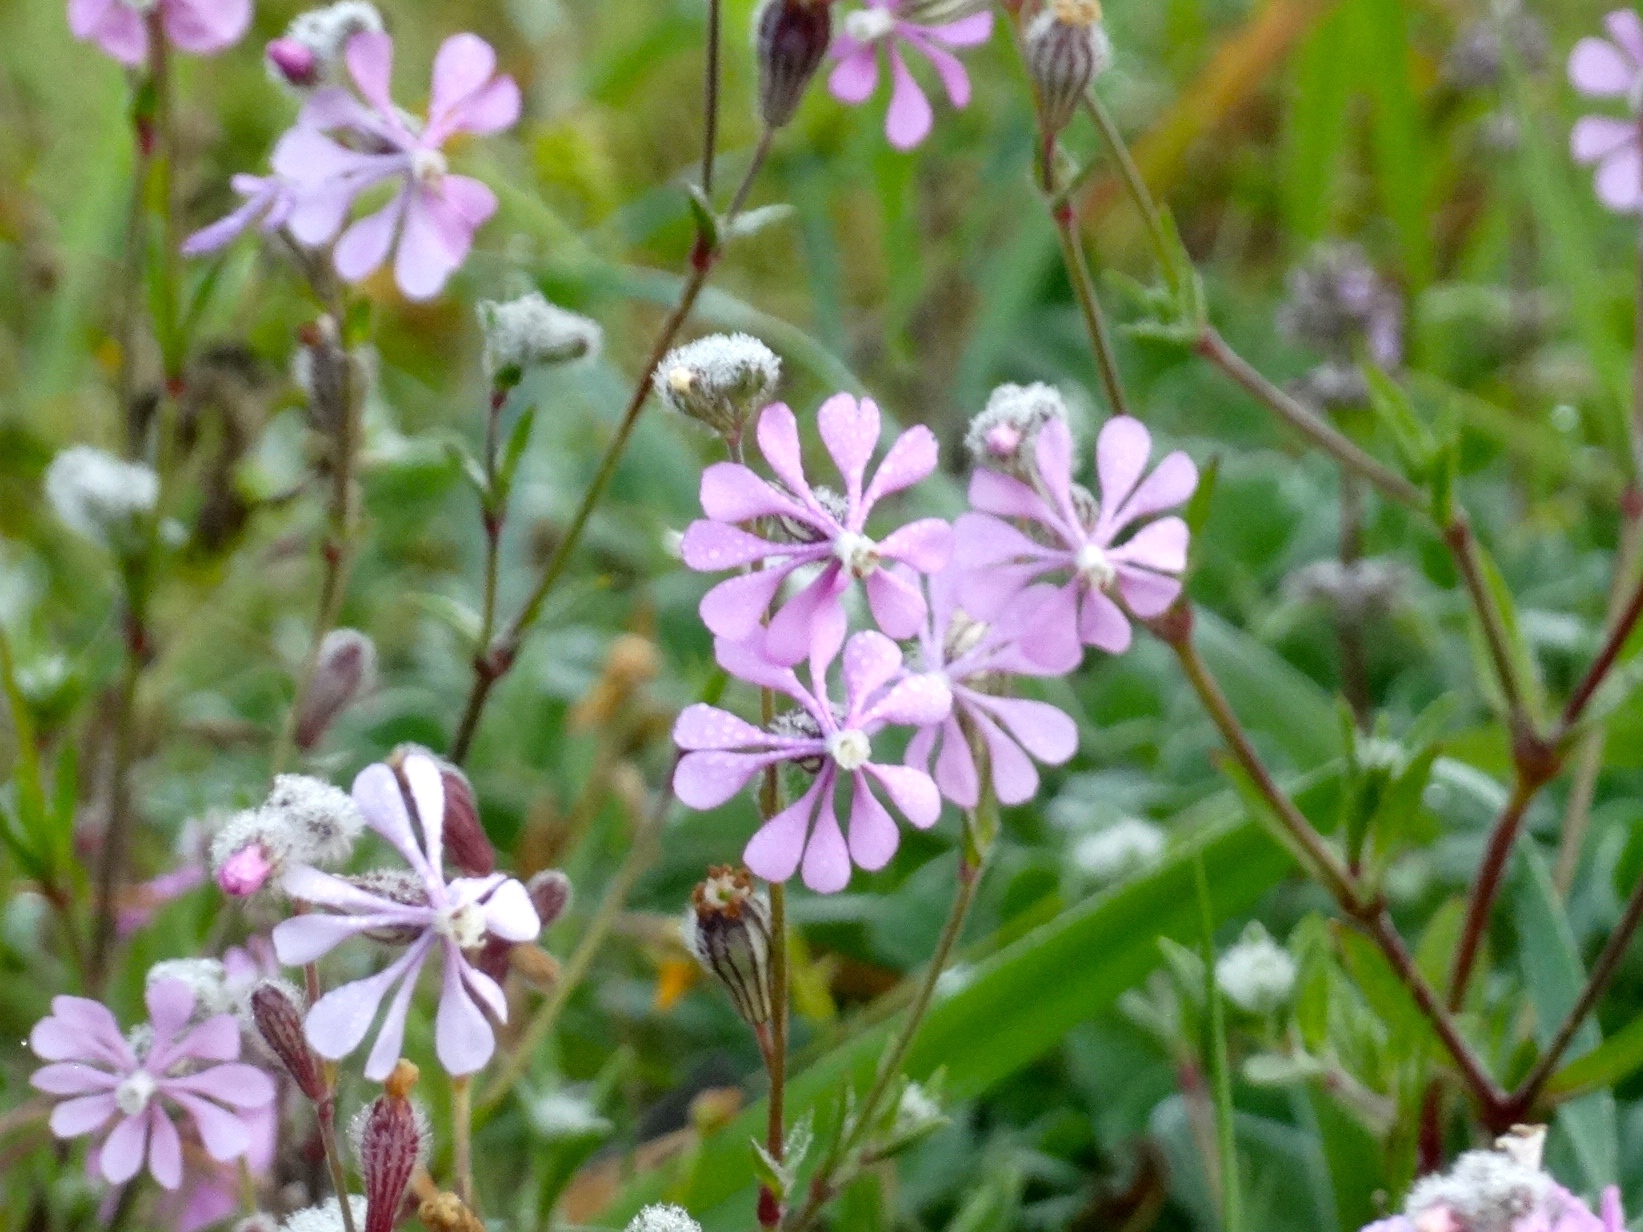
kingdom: Plantae
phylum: Tracheophyta
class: Magnoliopsida
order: Caryophyllales
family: Caryophyllaceae
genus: Silene
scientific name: Silene colorata
